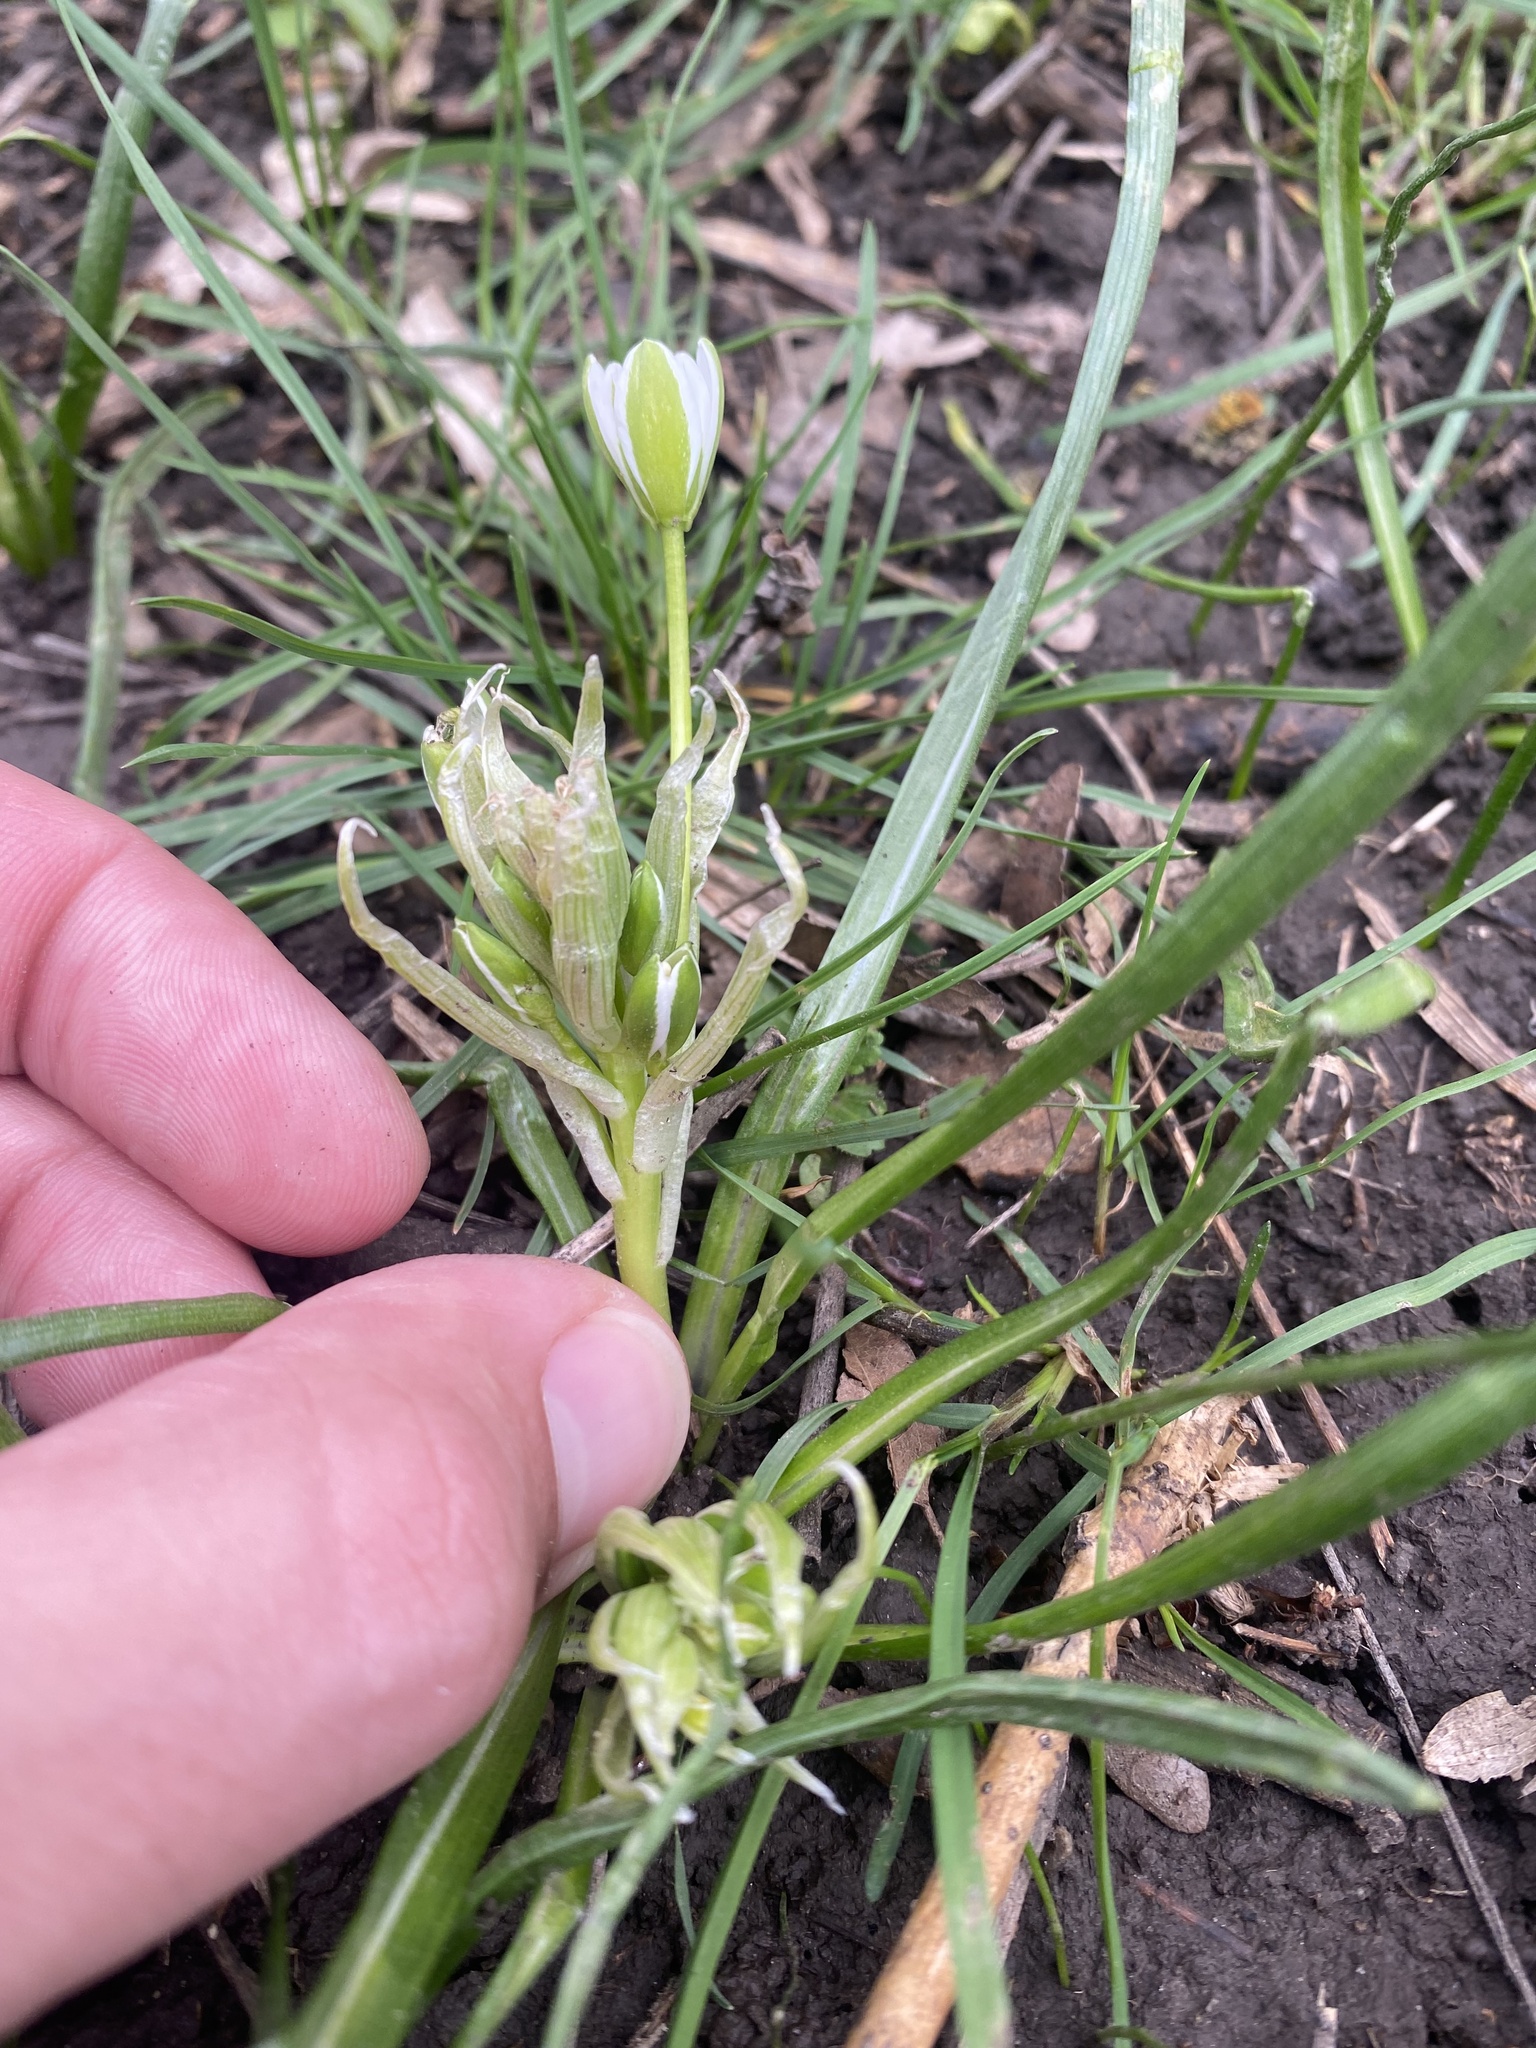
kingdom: Plantae
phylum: Tracheophyta
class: Liliopsida
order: Asparagales
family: Asparagaceae
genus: Ornithogalum
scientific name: Ornithogalum woronowii
